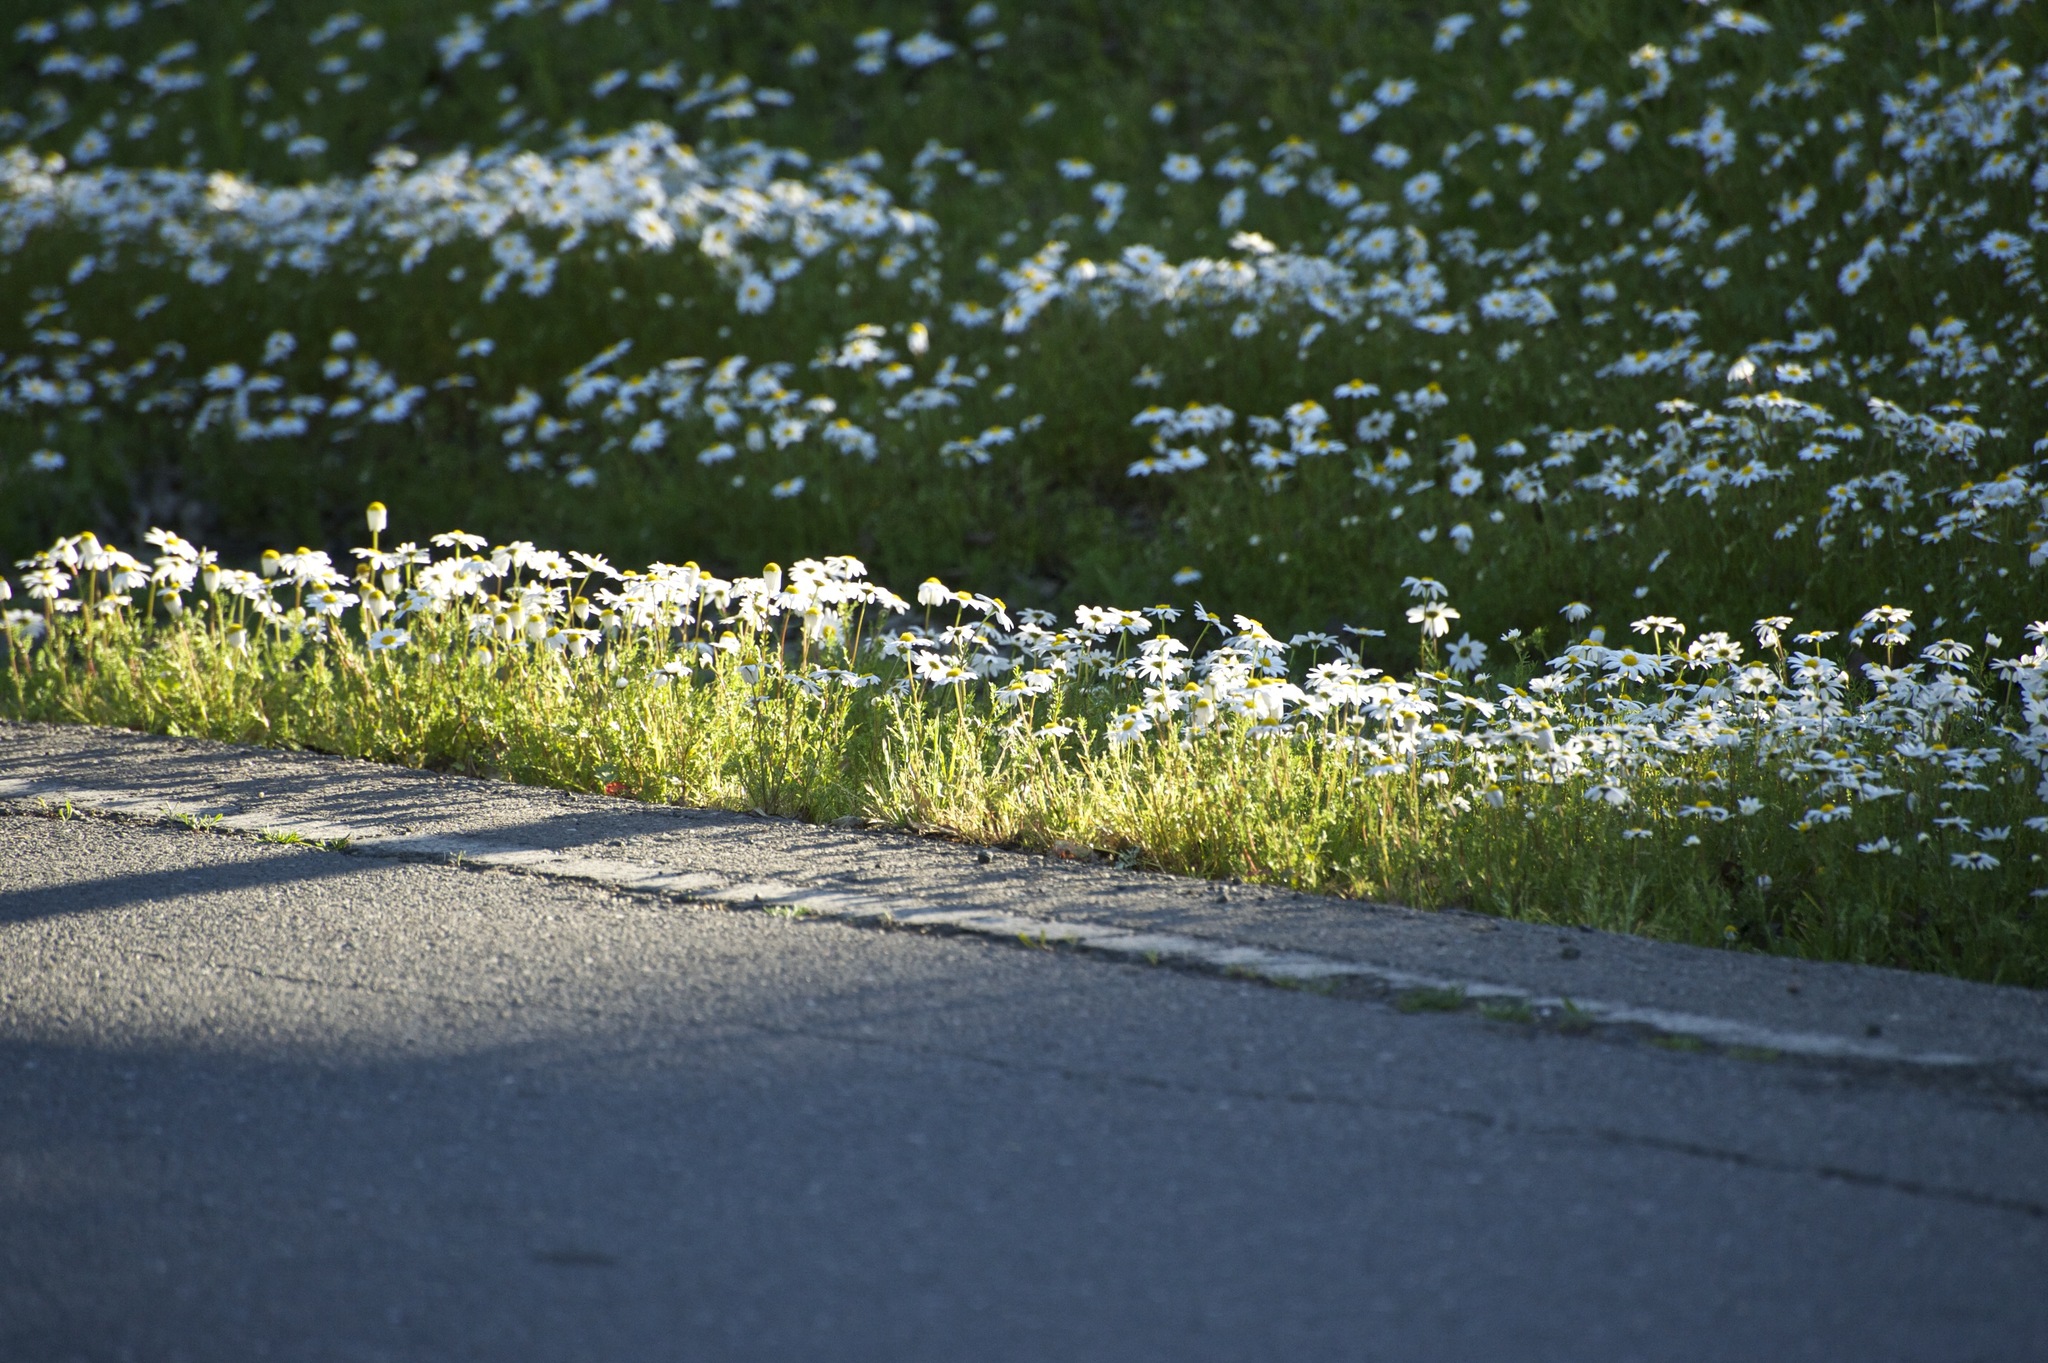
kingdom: Plantae
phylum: Tracheophyta
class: Magnoliopsida
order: Asterales
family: Asteraceae
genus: Anthemis
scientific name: Anthemis cotula
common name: Stinking chamomile
